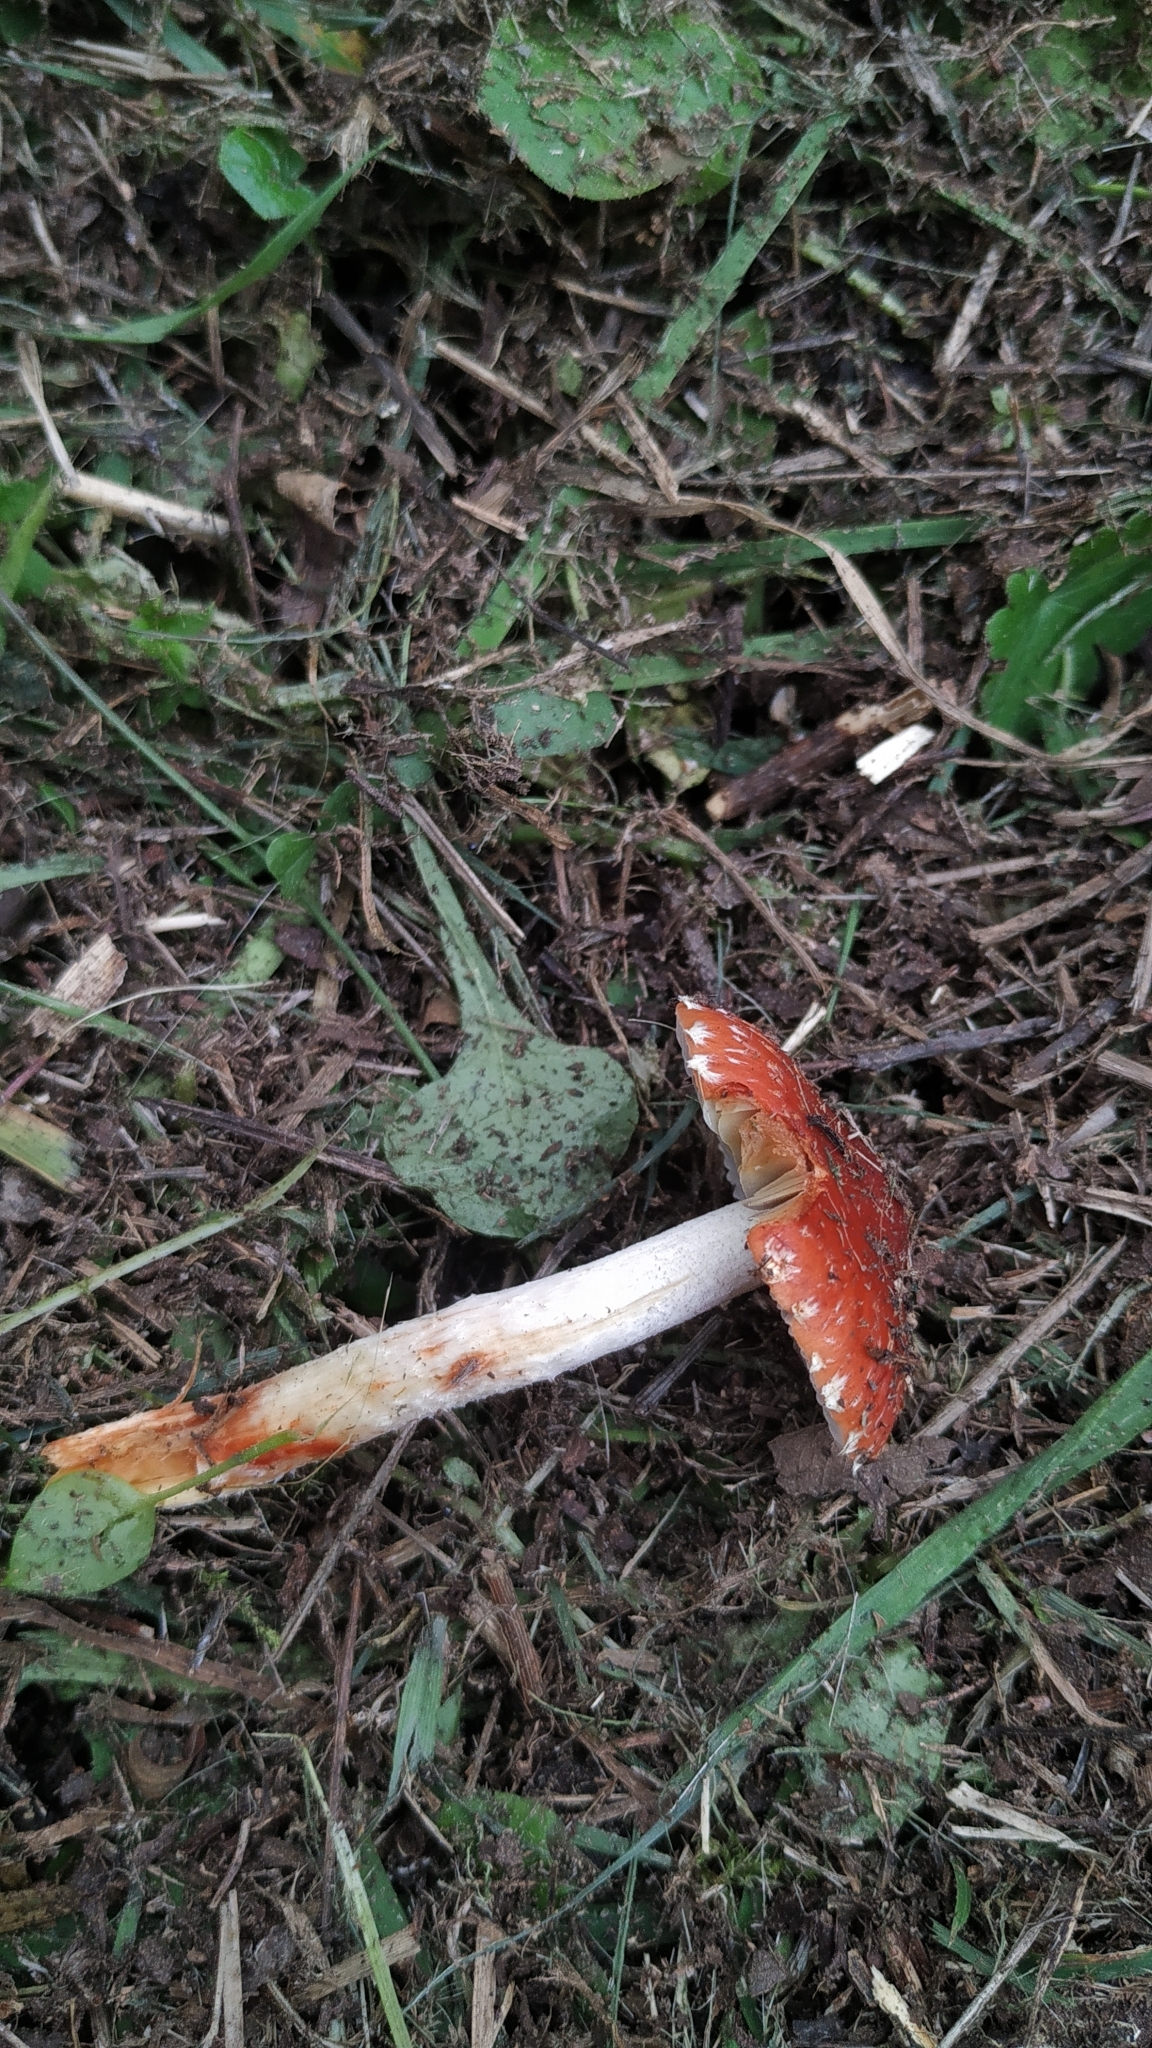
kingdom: Fungi
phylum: Basidiomycota
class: Agaricomycetes
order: Agaricales
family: Strophariaceae
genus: Leratiomyces
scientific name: Leratiomyces ceres
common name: Redlead roundhead
